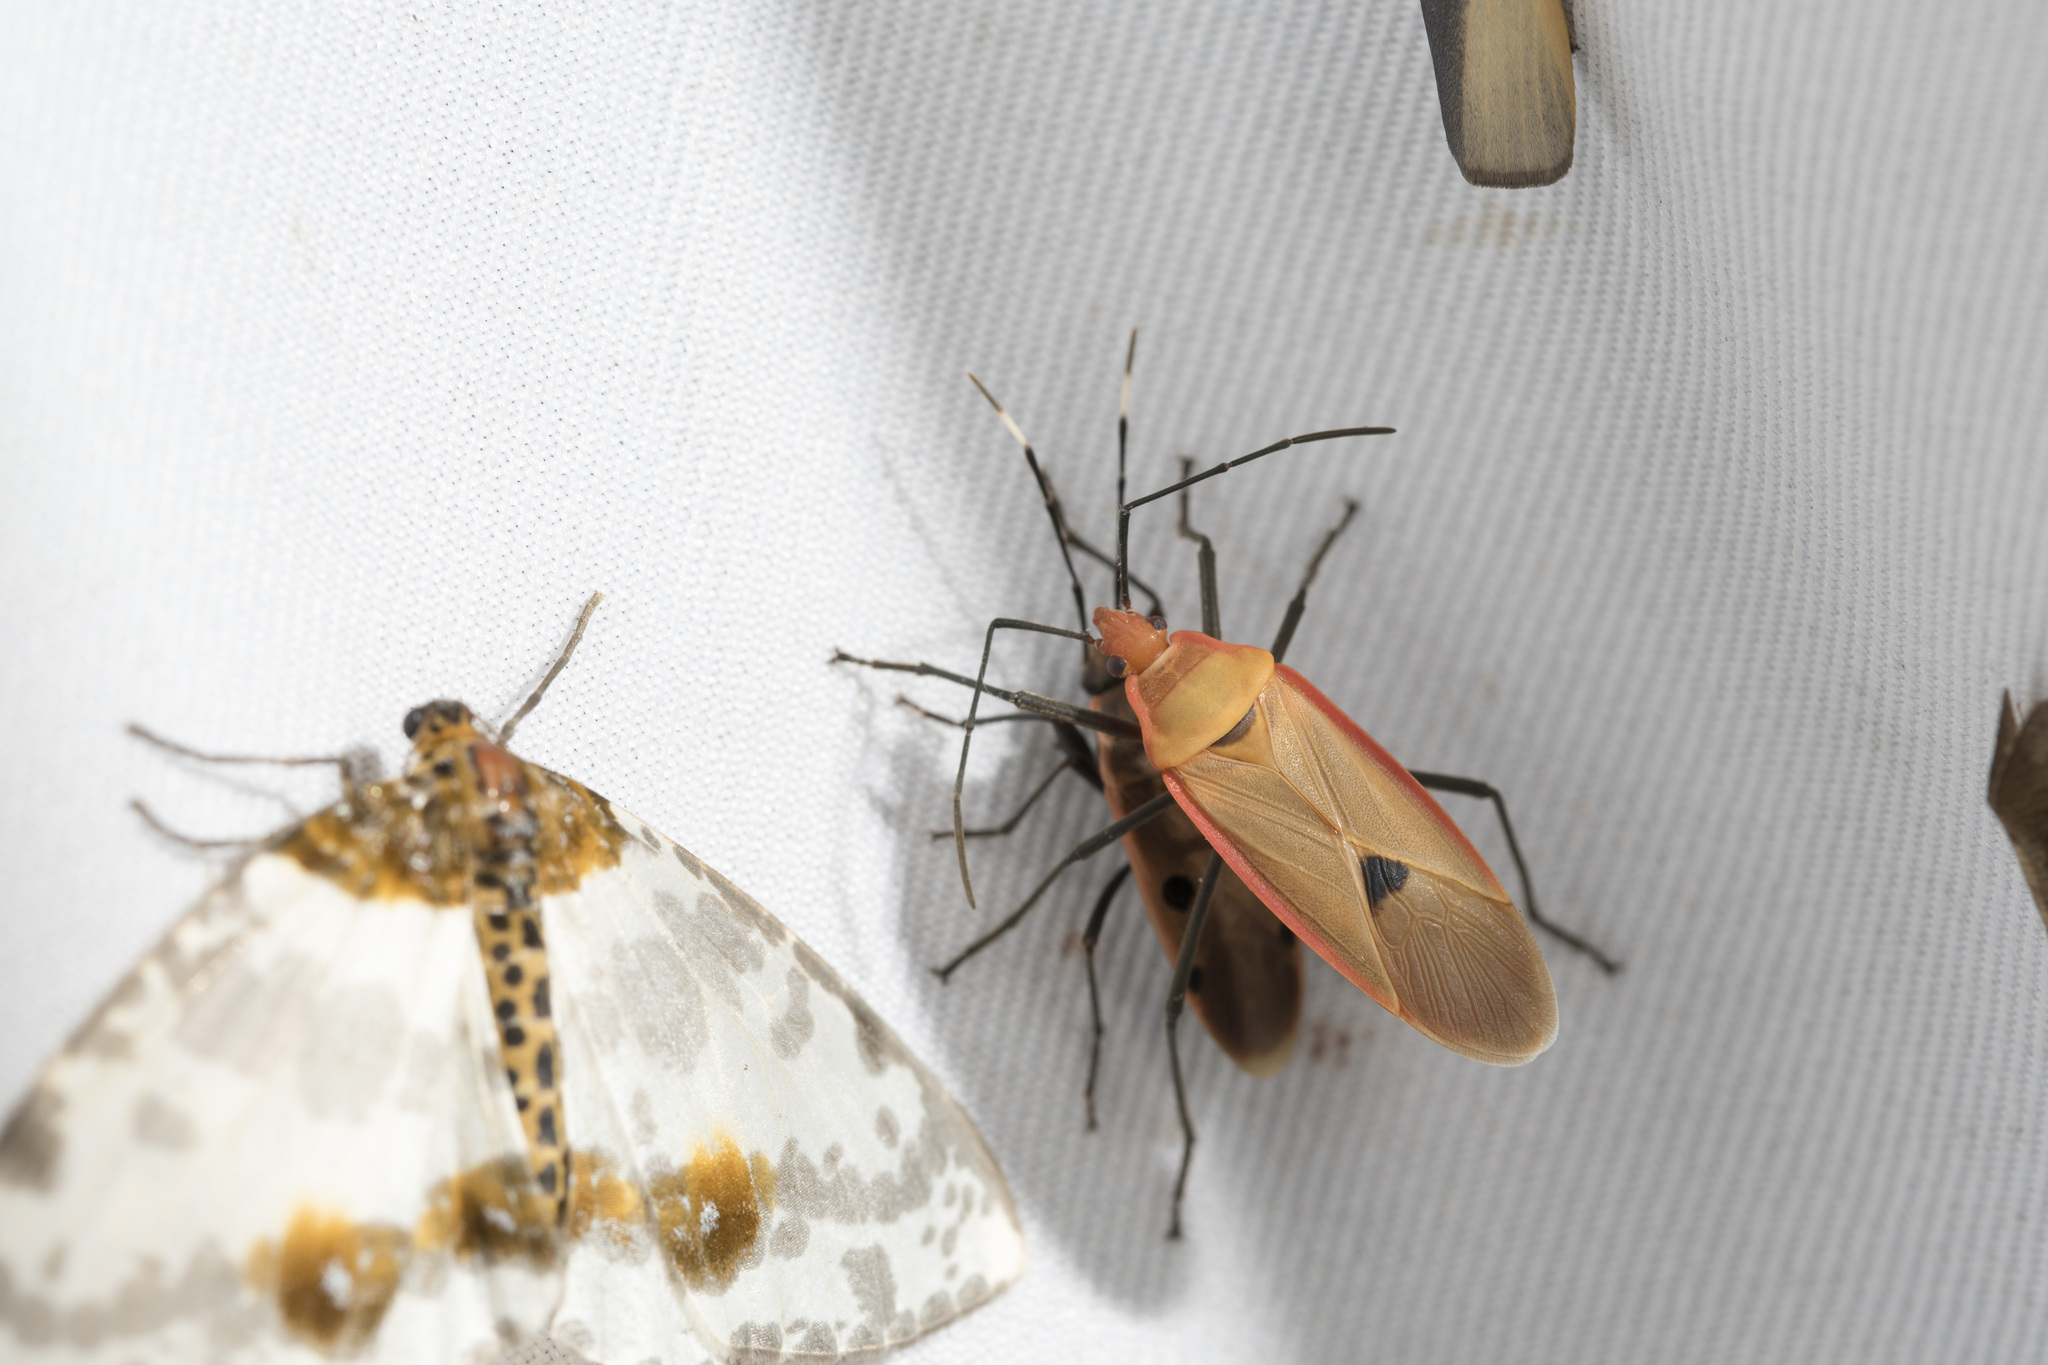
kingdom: Animalia
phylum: Arthropoda
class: Insecta
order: Hemiptera
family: Pyrrhocoridae
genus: Dysdercus
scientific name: Dysdercus fuscomaculatus
